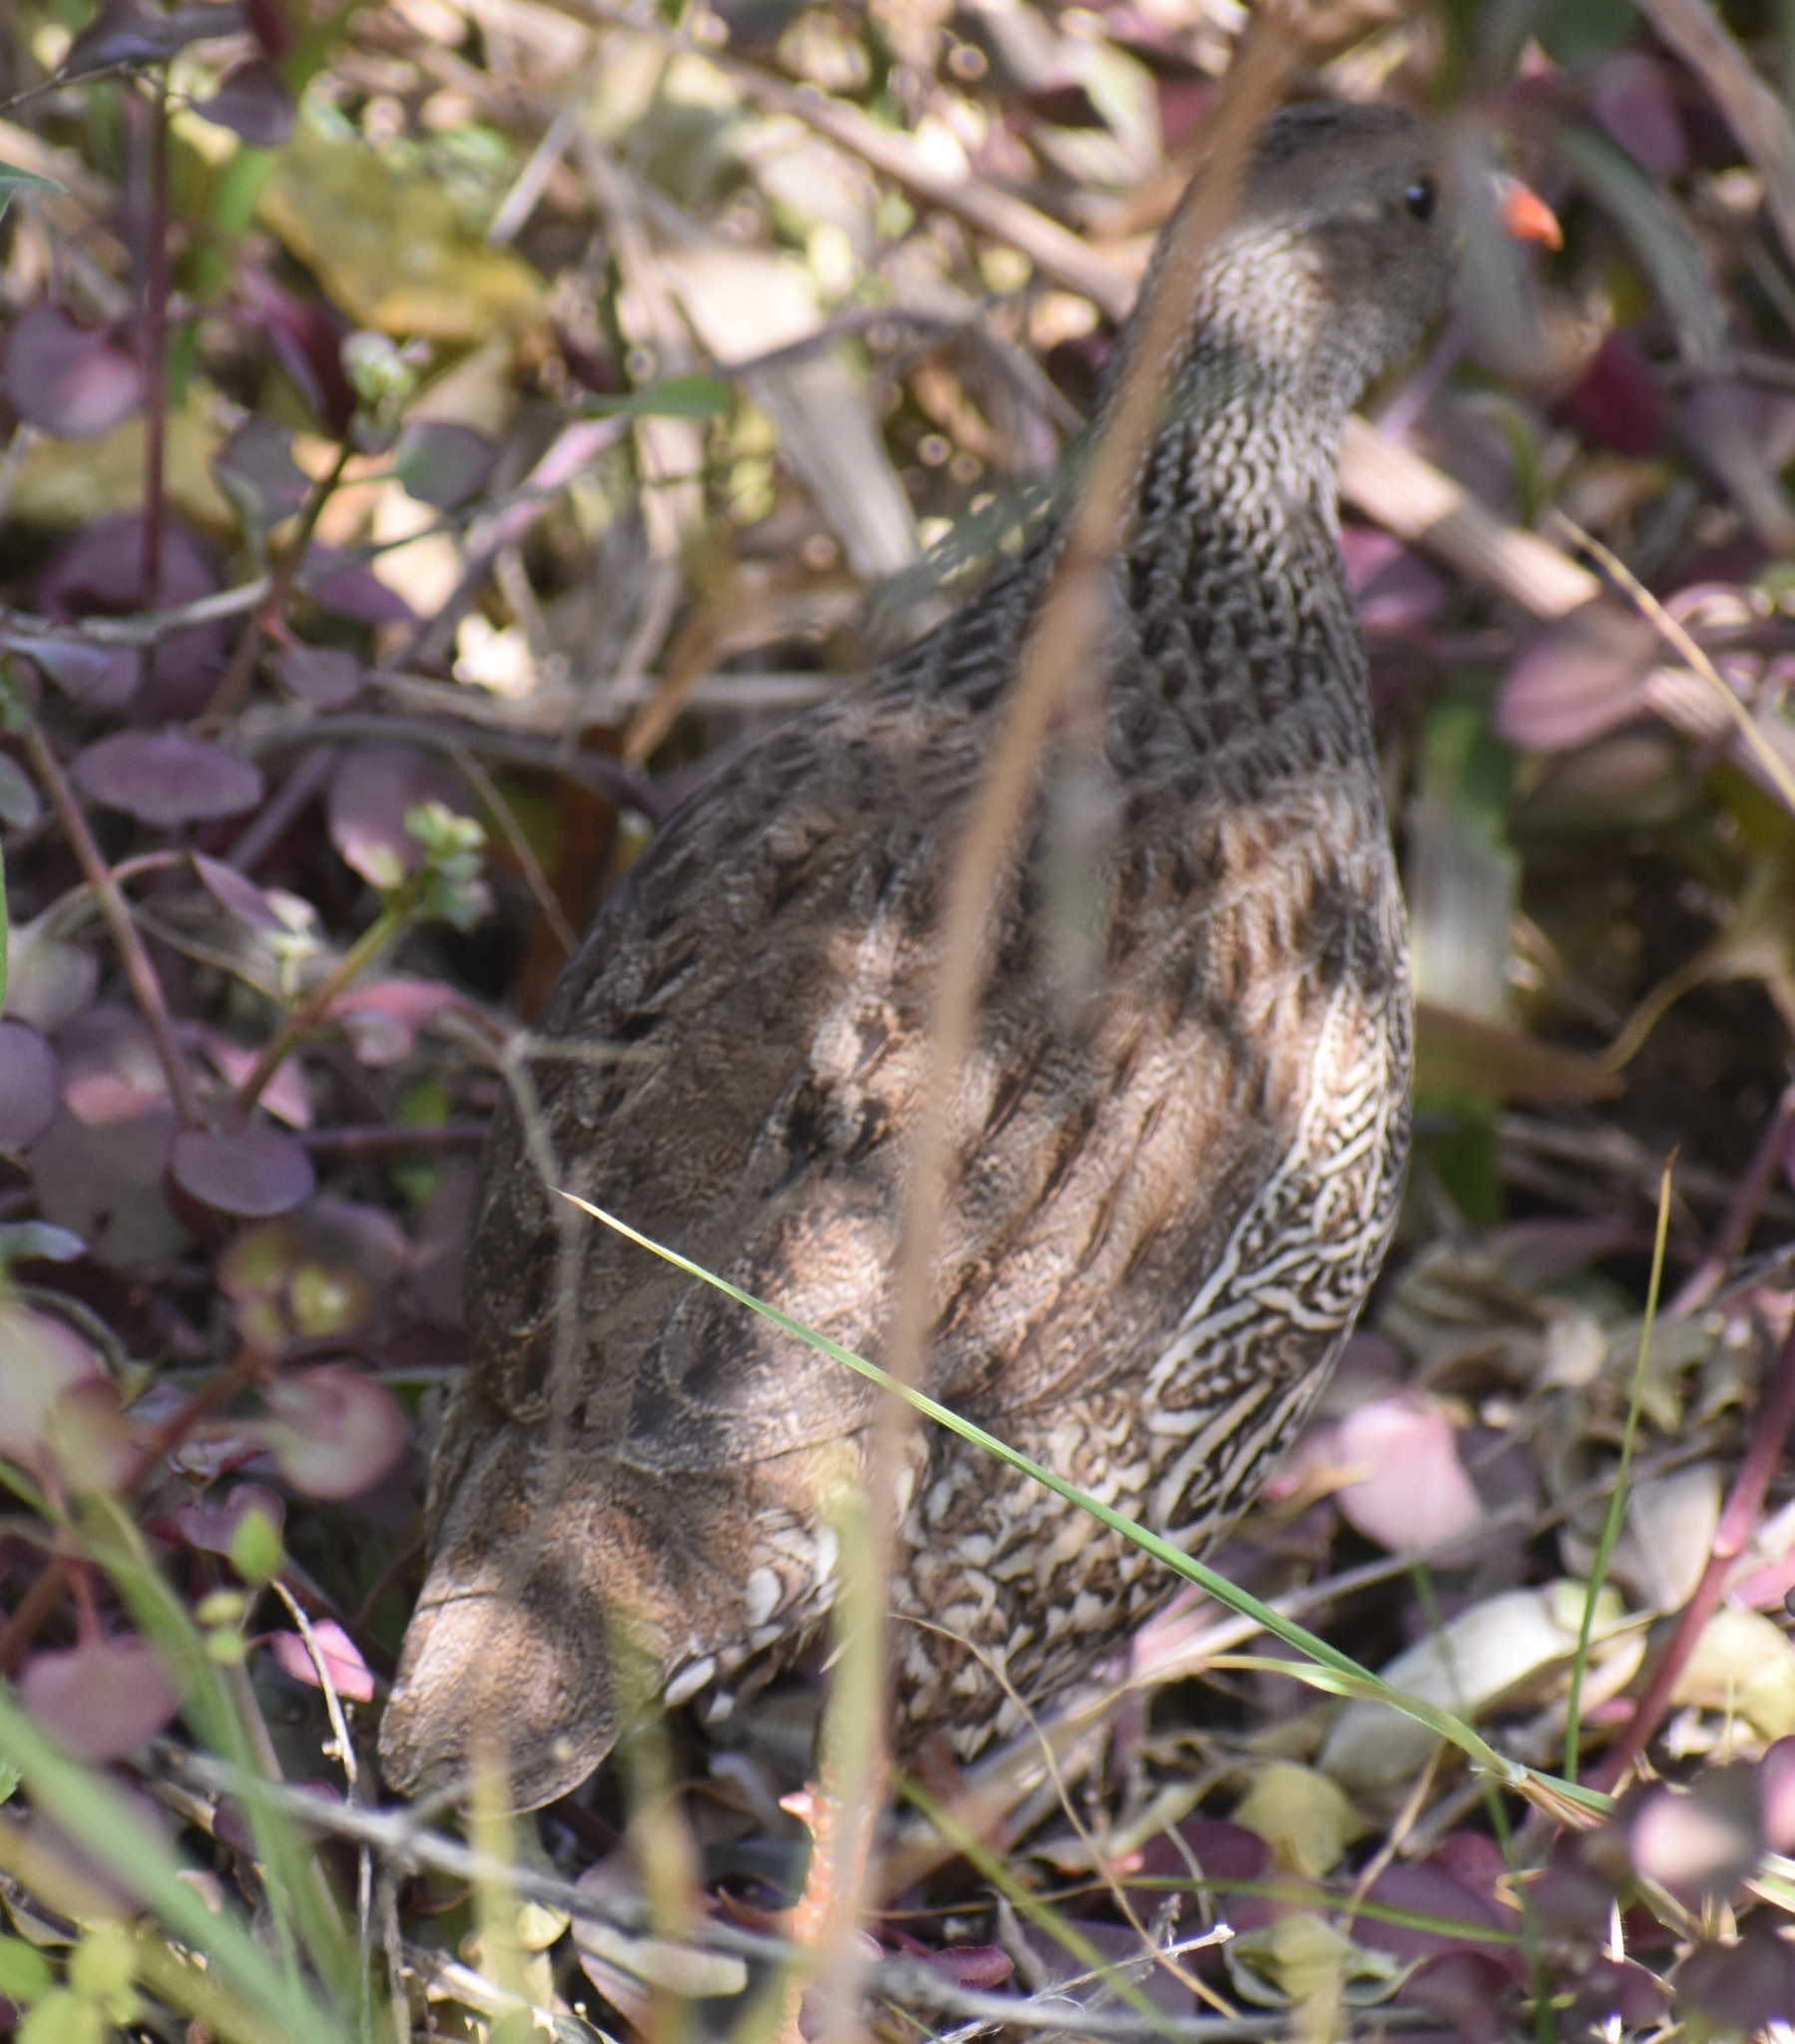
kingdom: Animalia
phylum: Chordata
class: Aves
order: Galliformes
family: Phasianidae
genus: Pternistis
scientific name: Pternistis natalensis
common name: Natal spurfowl
